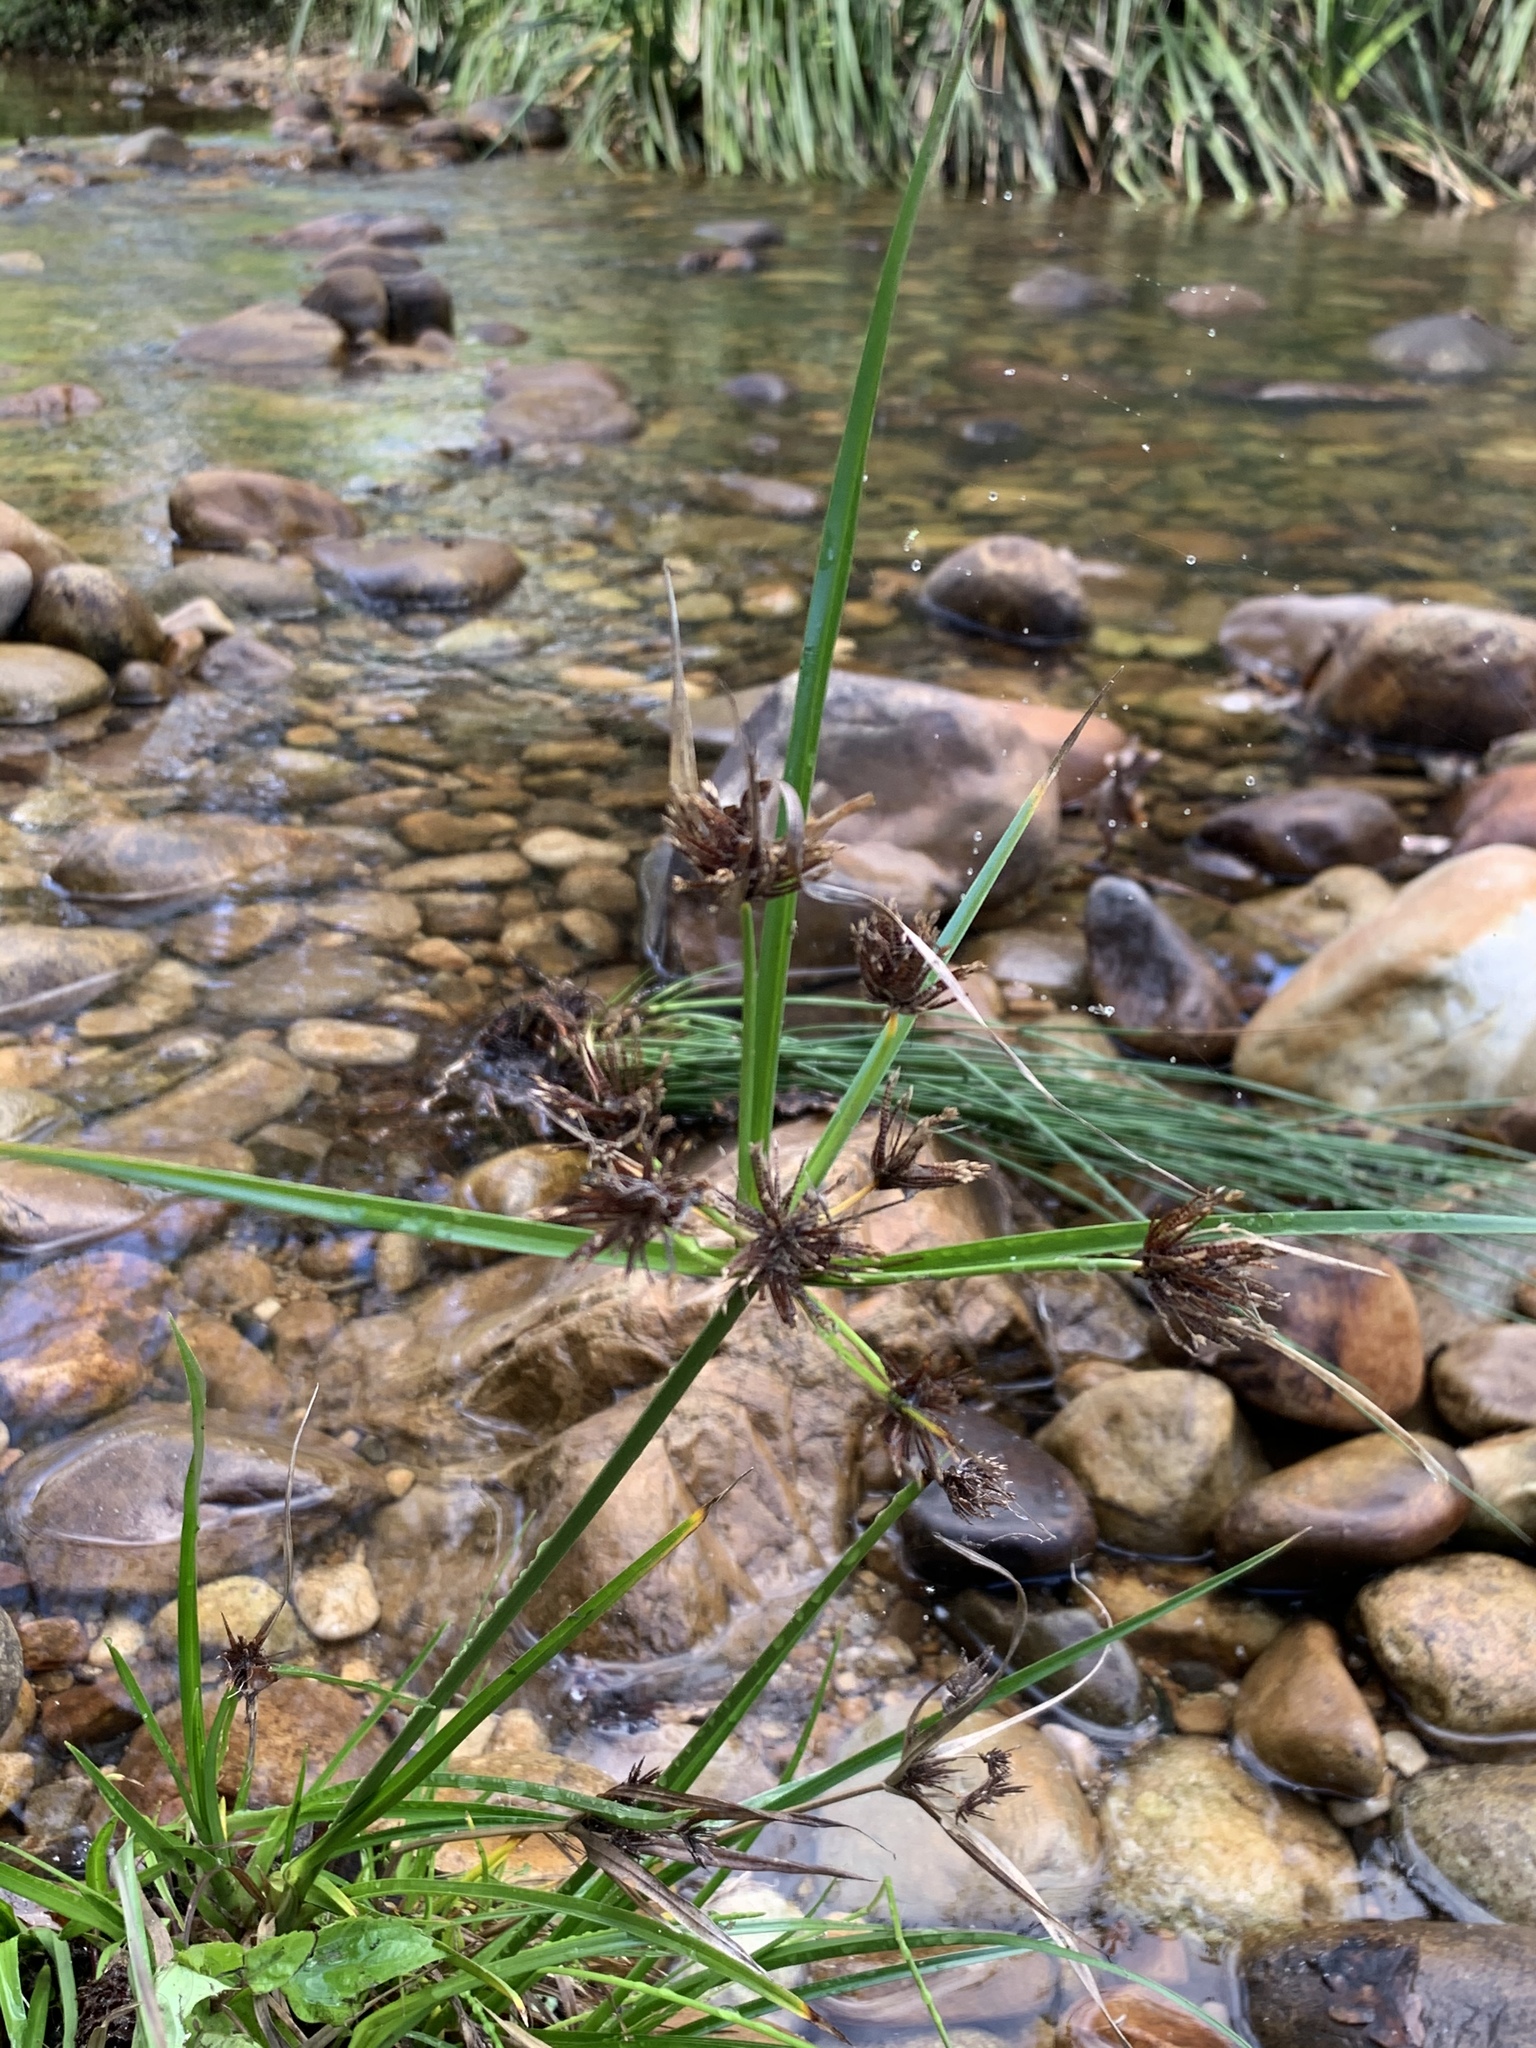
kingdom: Plantae
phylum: Tracheophyta
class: Liliopsida
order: Poales
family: Cyperaceae
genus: Cyperus
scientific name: Cyperus congestus
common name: Dense flat sedge
